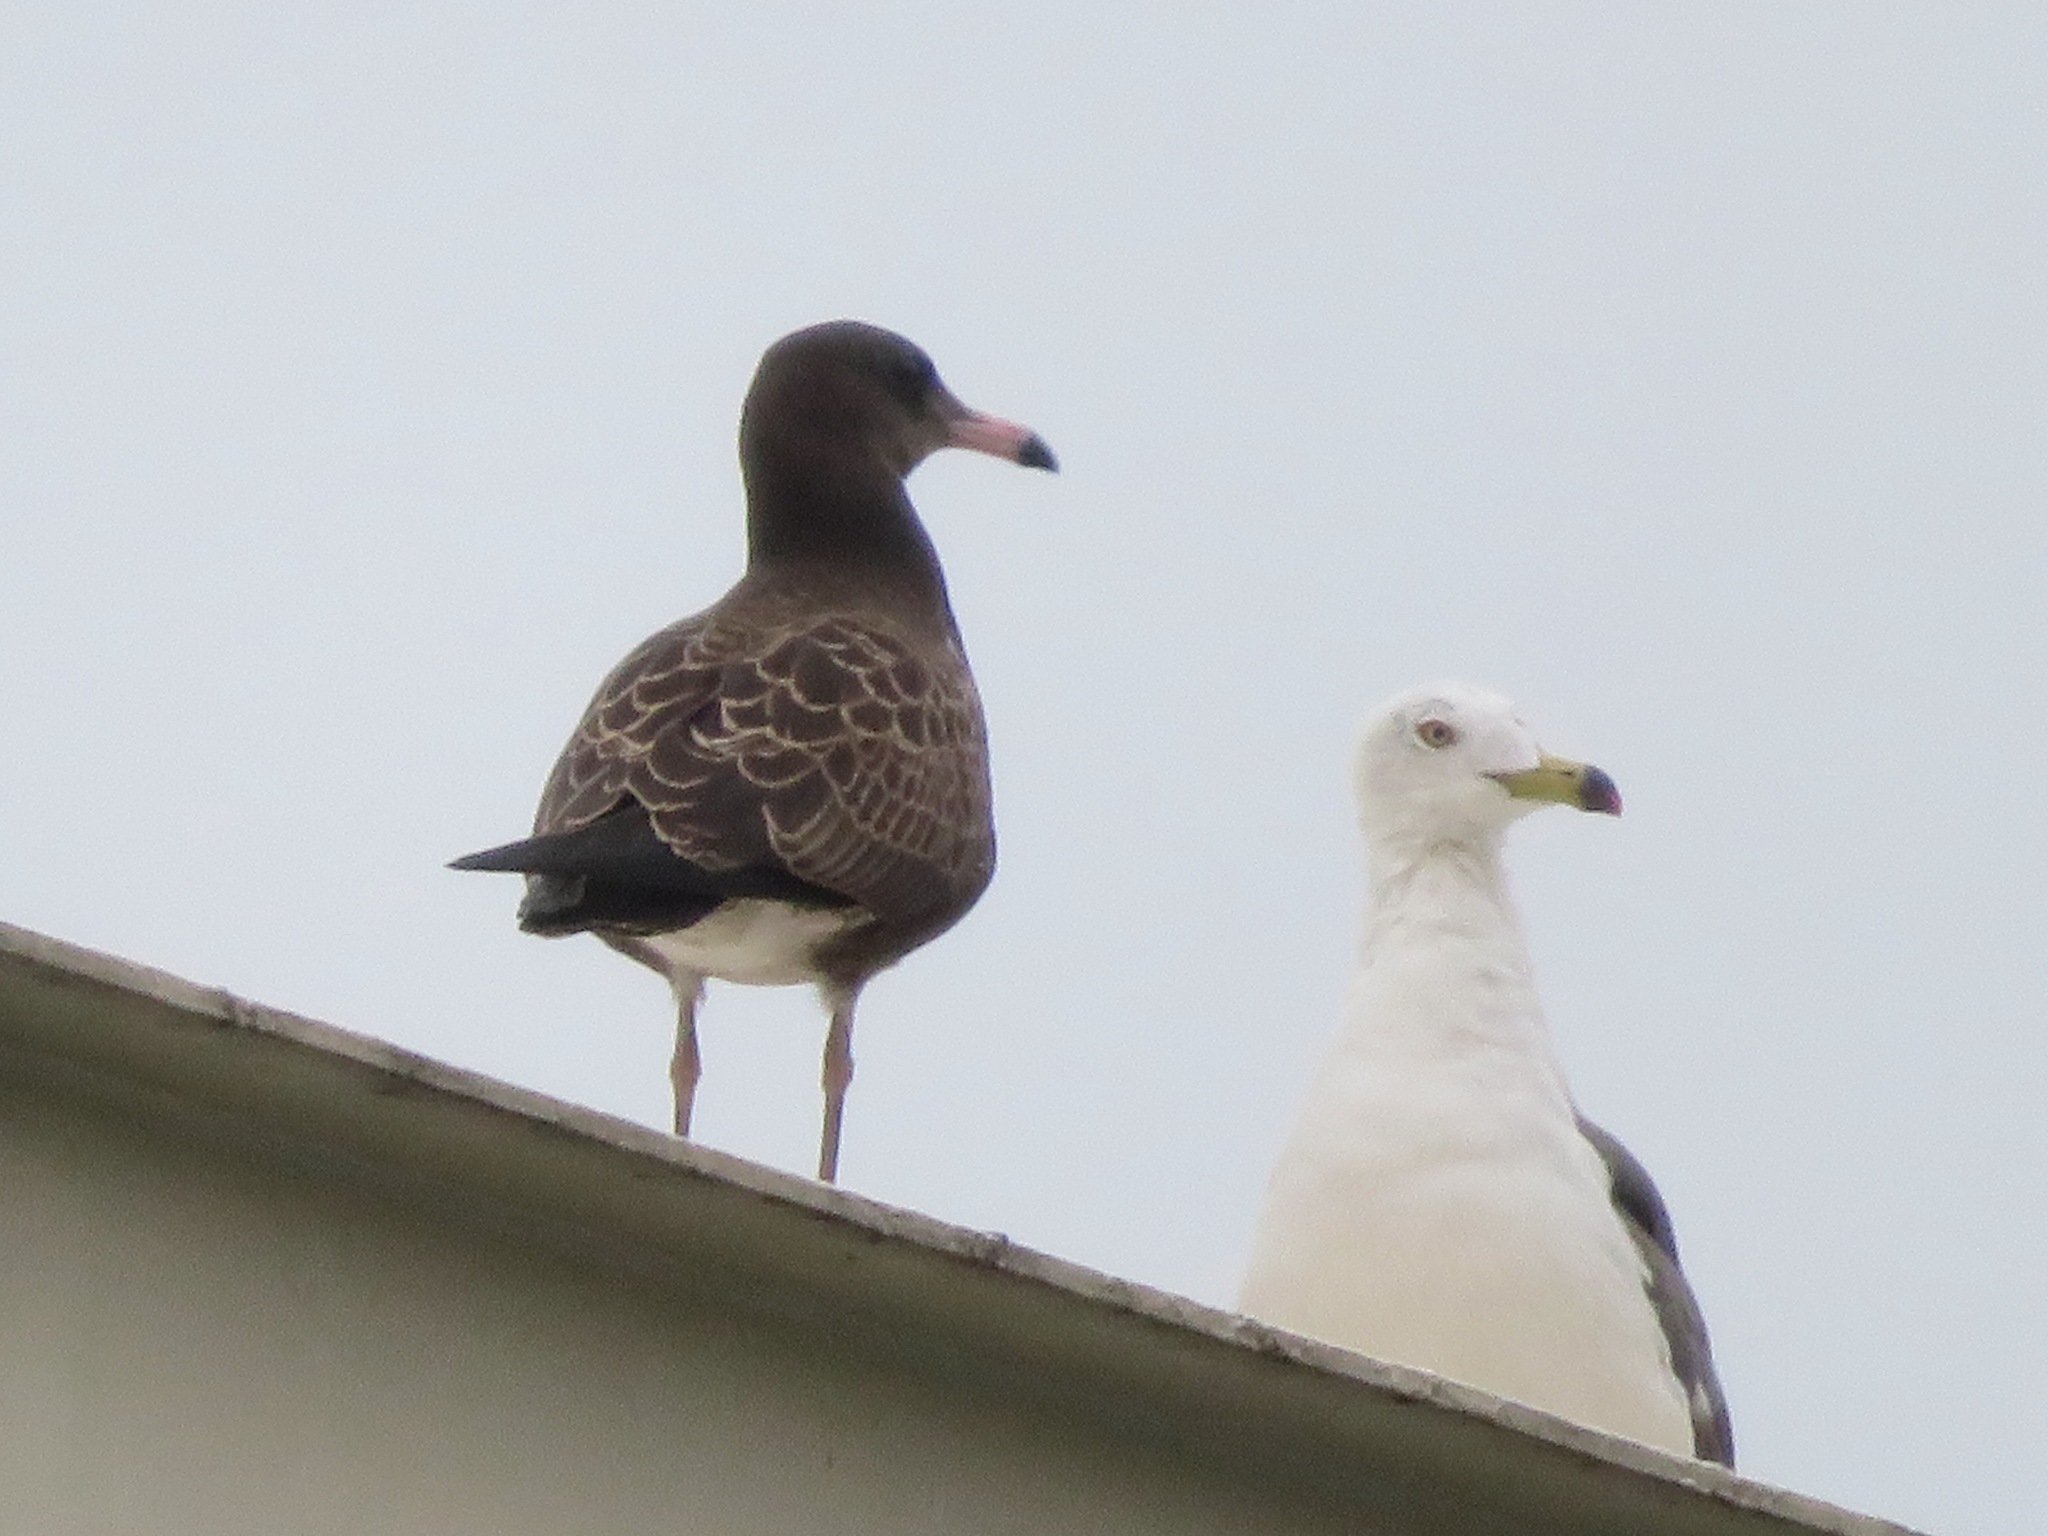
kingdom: Animalia
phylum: Chordata
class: Aves
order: Charadriiformes
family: Laridae
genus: Larus
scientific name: Larus crassirostris
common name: Black-tailed gull
